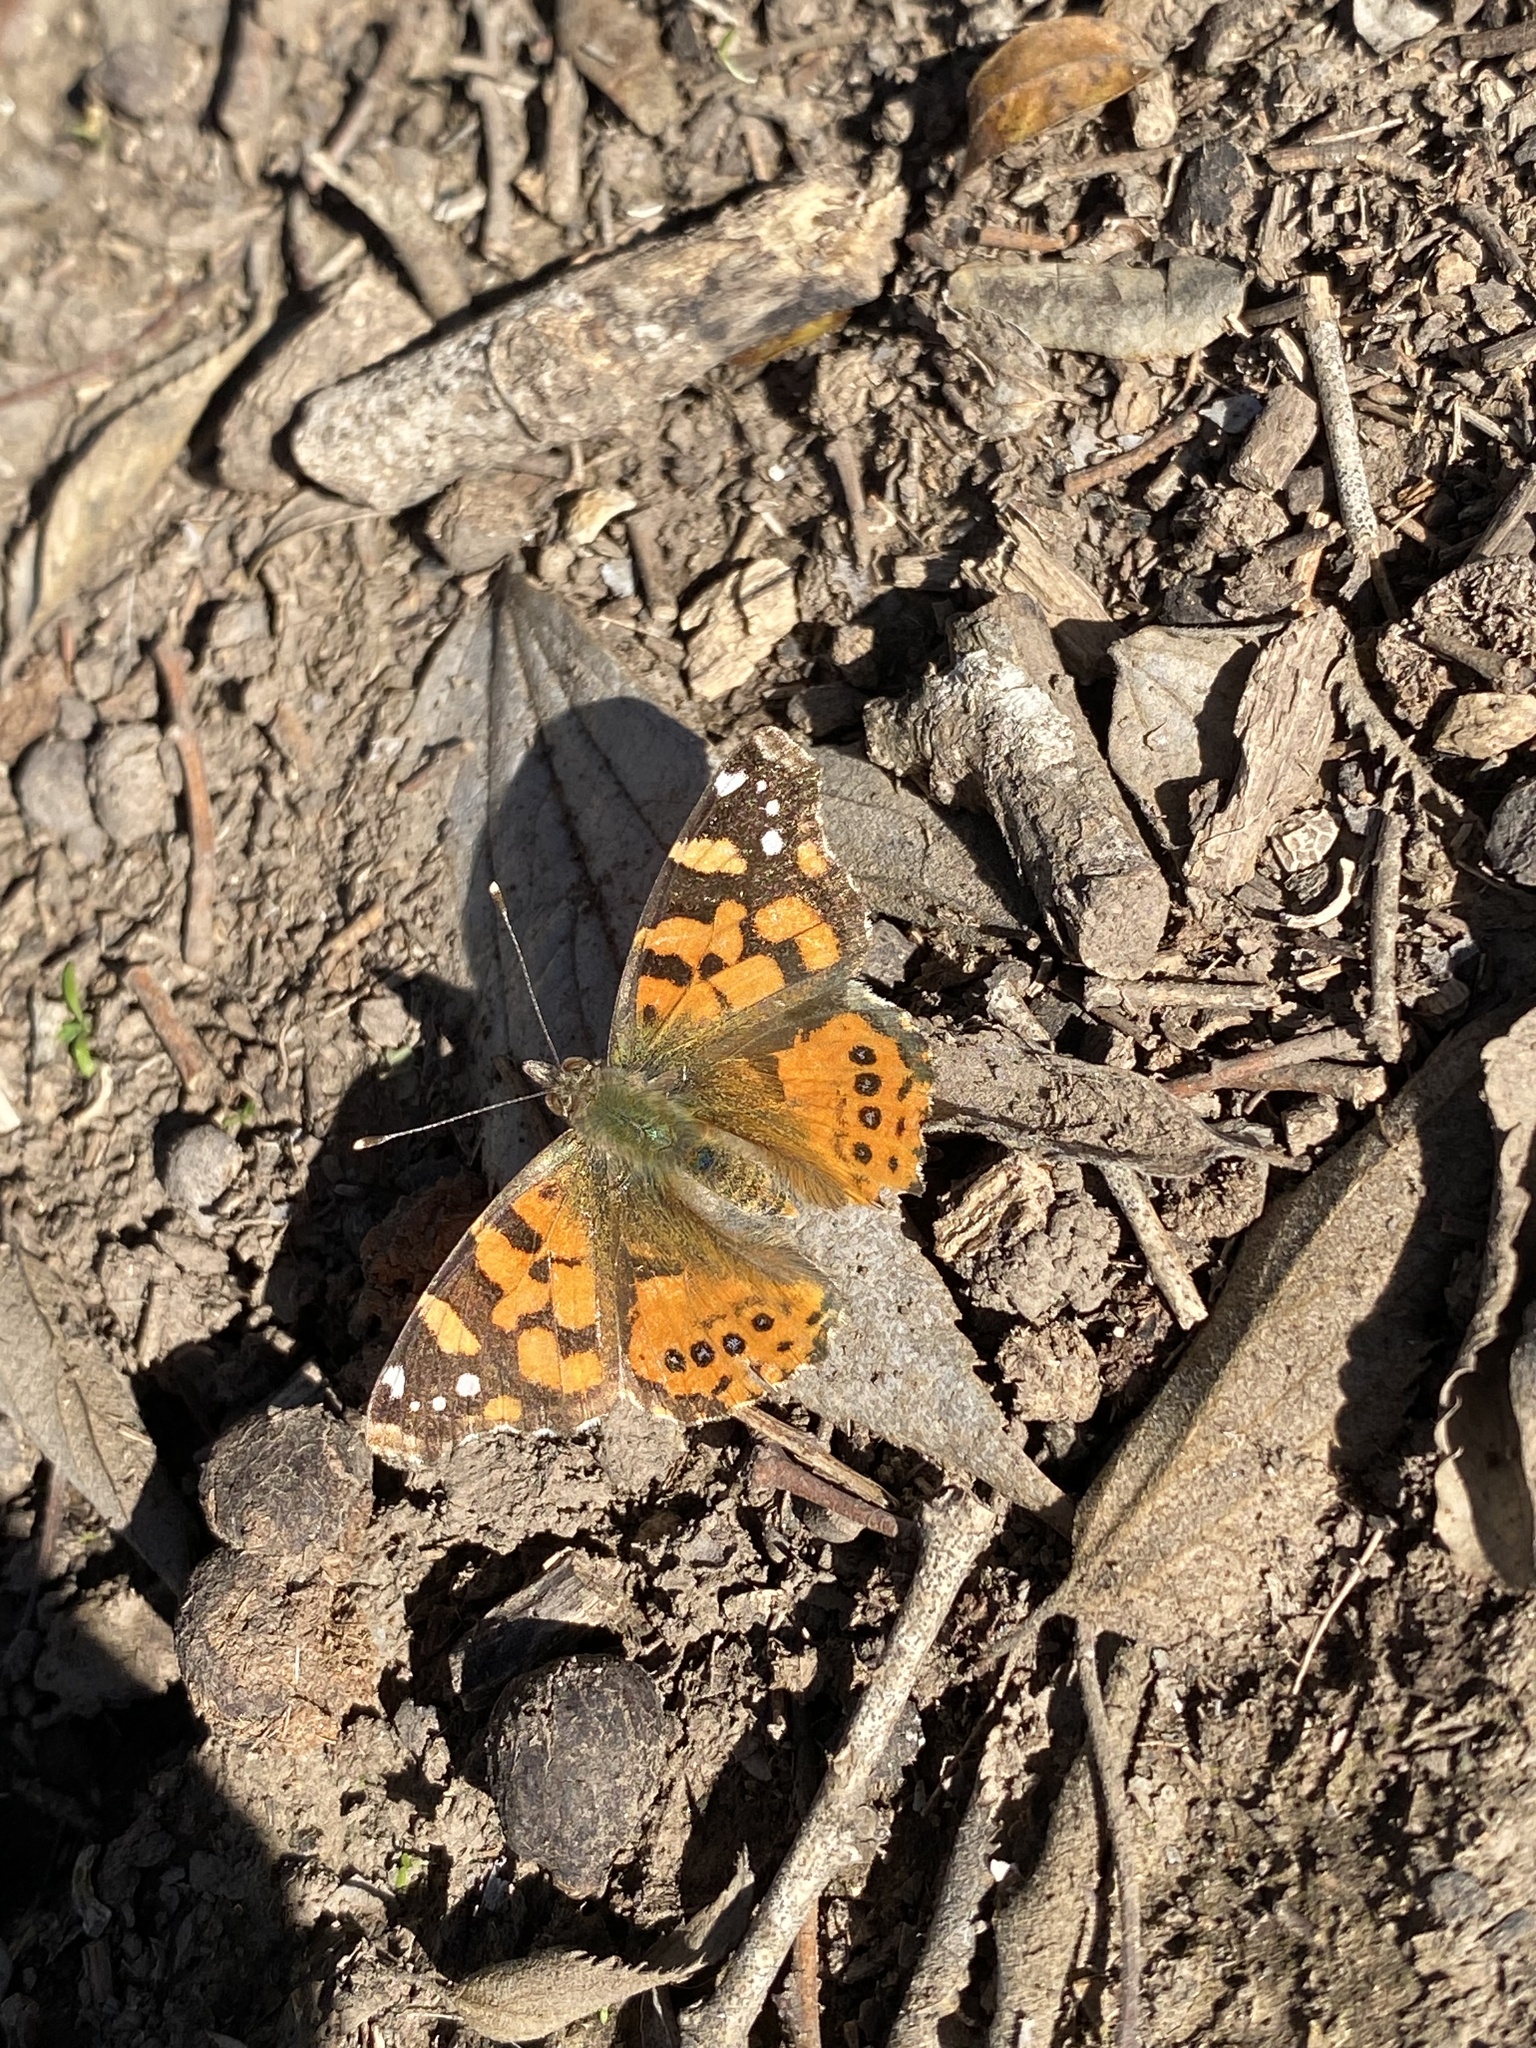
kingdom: Animalia
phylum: Arthropoda
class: Insecta
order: Lepidoptera
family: Nymphalidae
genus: Vanessa
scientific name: Vanessa carye
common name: Subtropical lady
